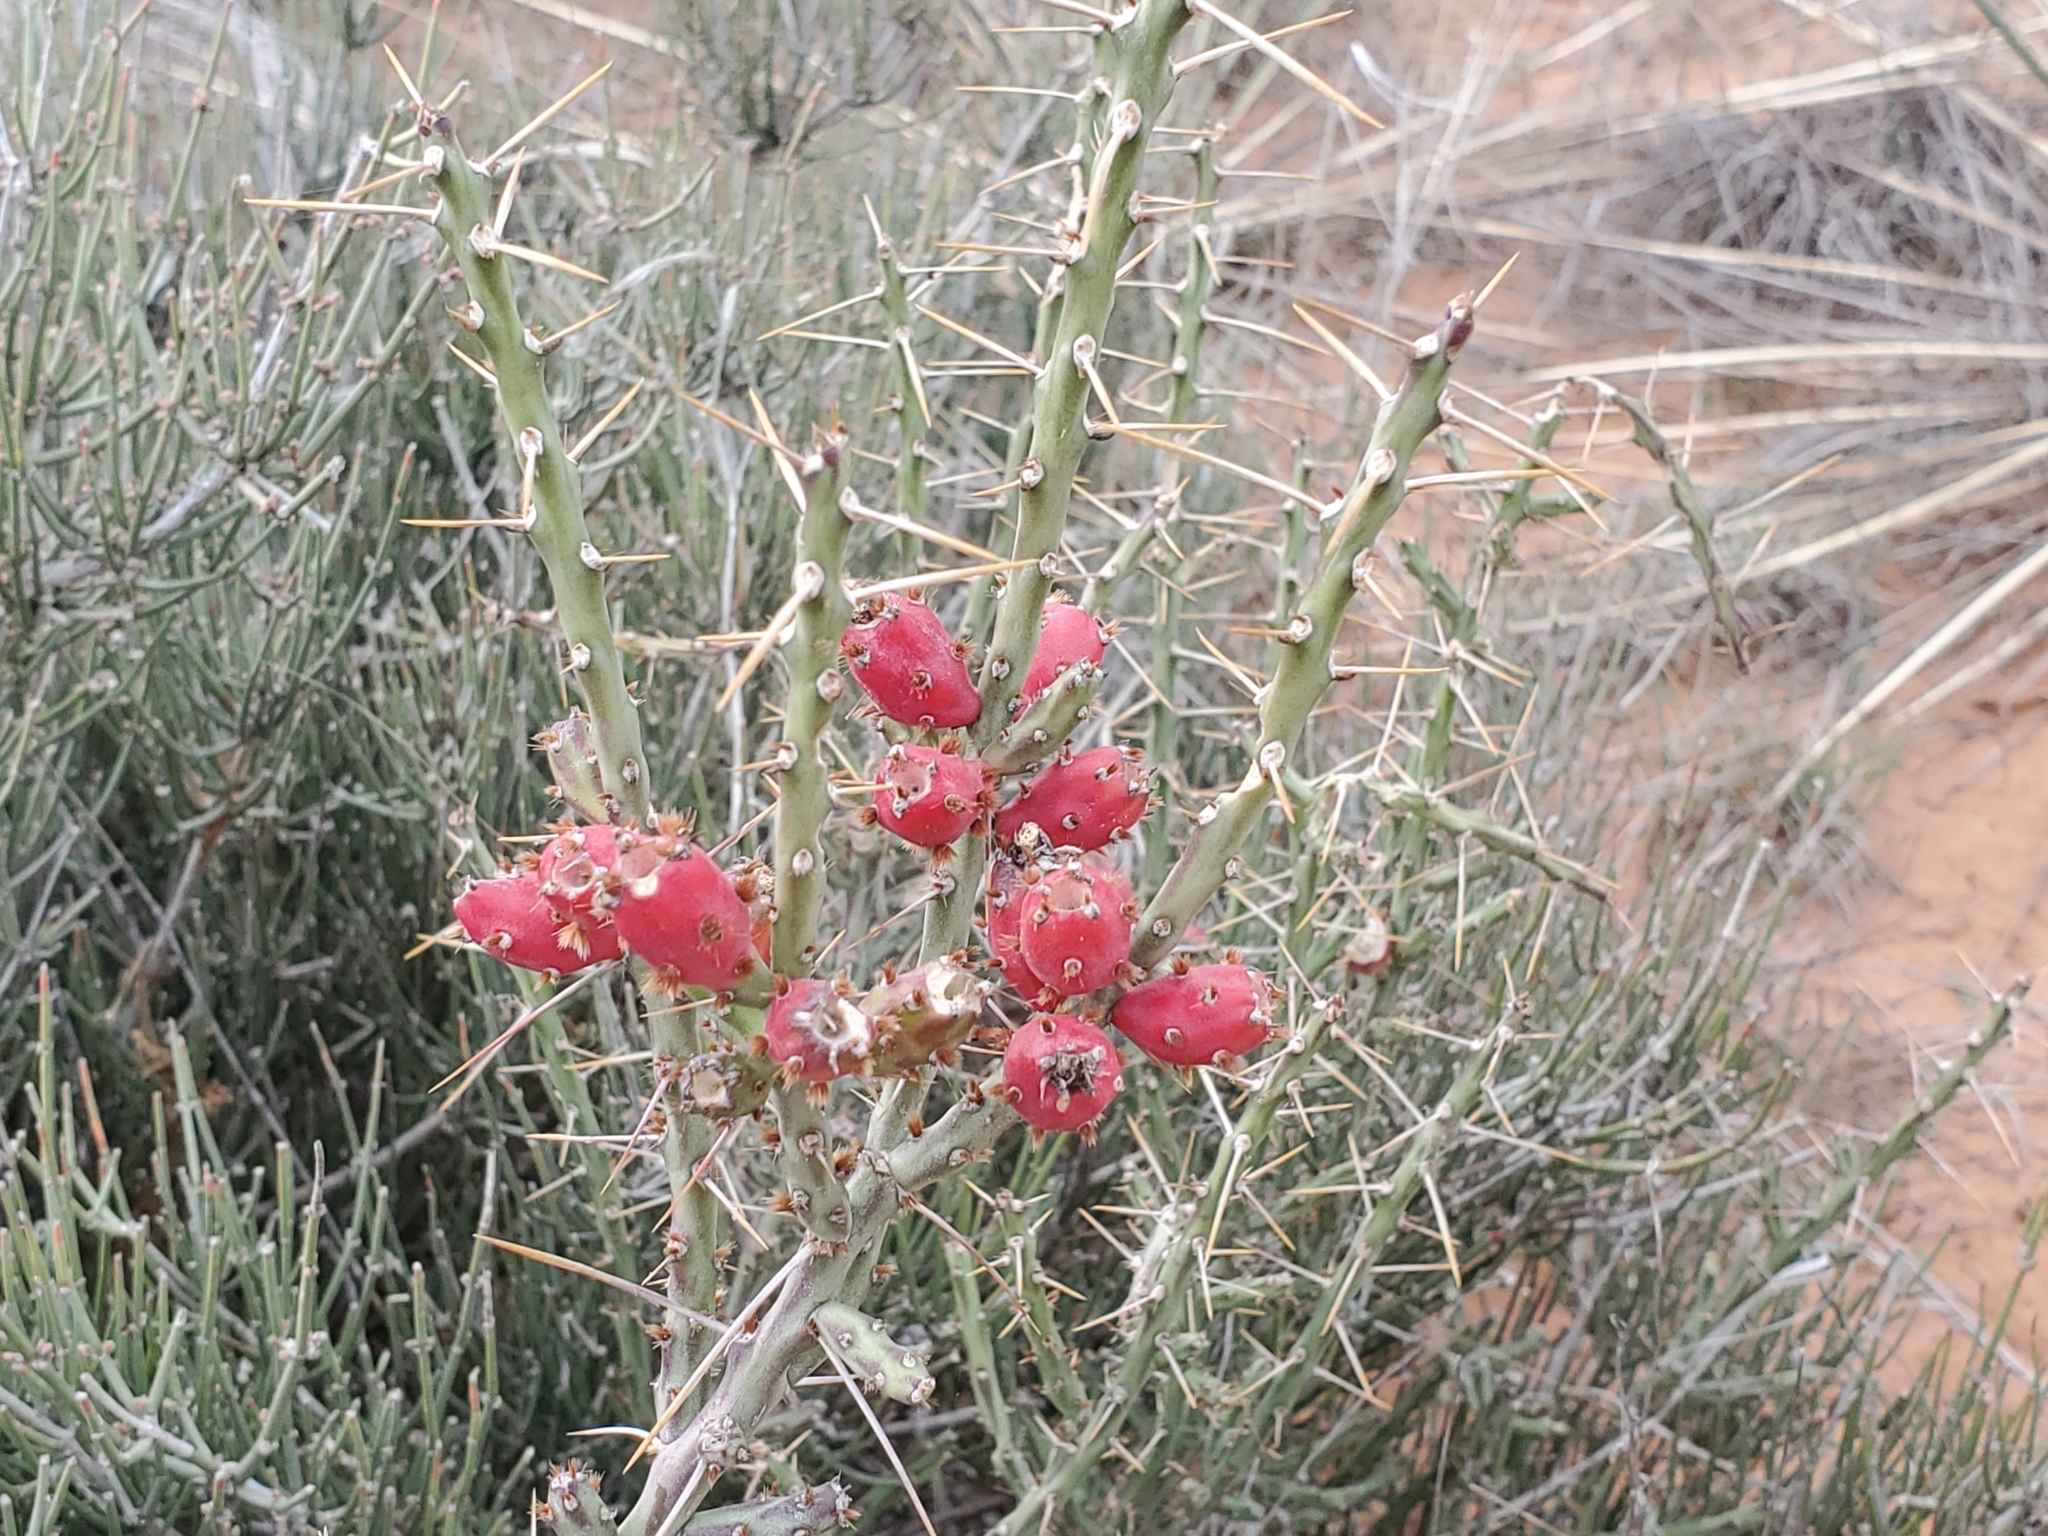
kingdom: Plantae
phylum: Tracheophyta
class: Magnoliopsida
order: Caryophyllales
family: Cactaceae
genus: Cylindropuntia
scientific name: Cylindropuntia leptocaulis
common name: Christmas cactus
